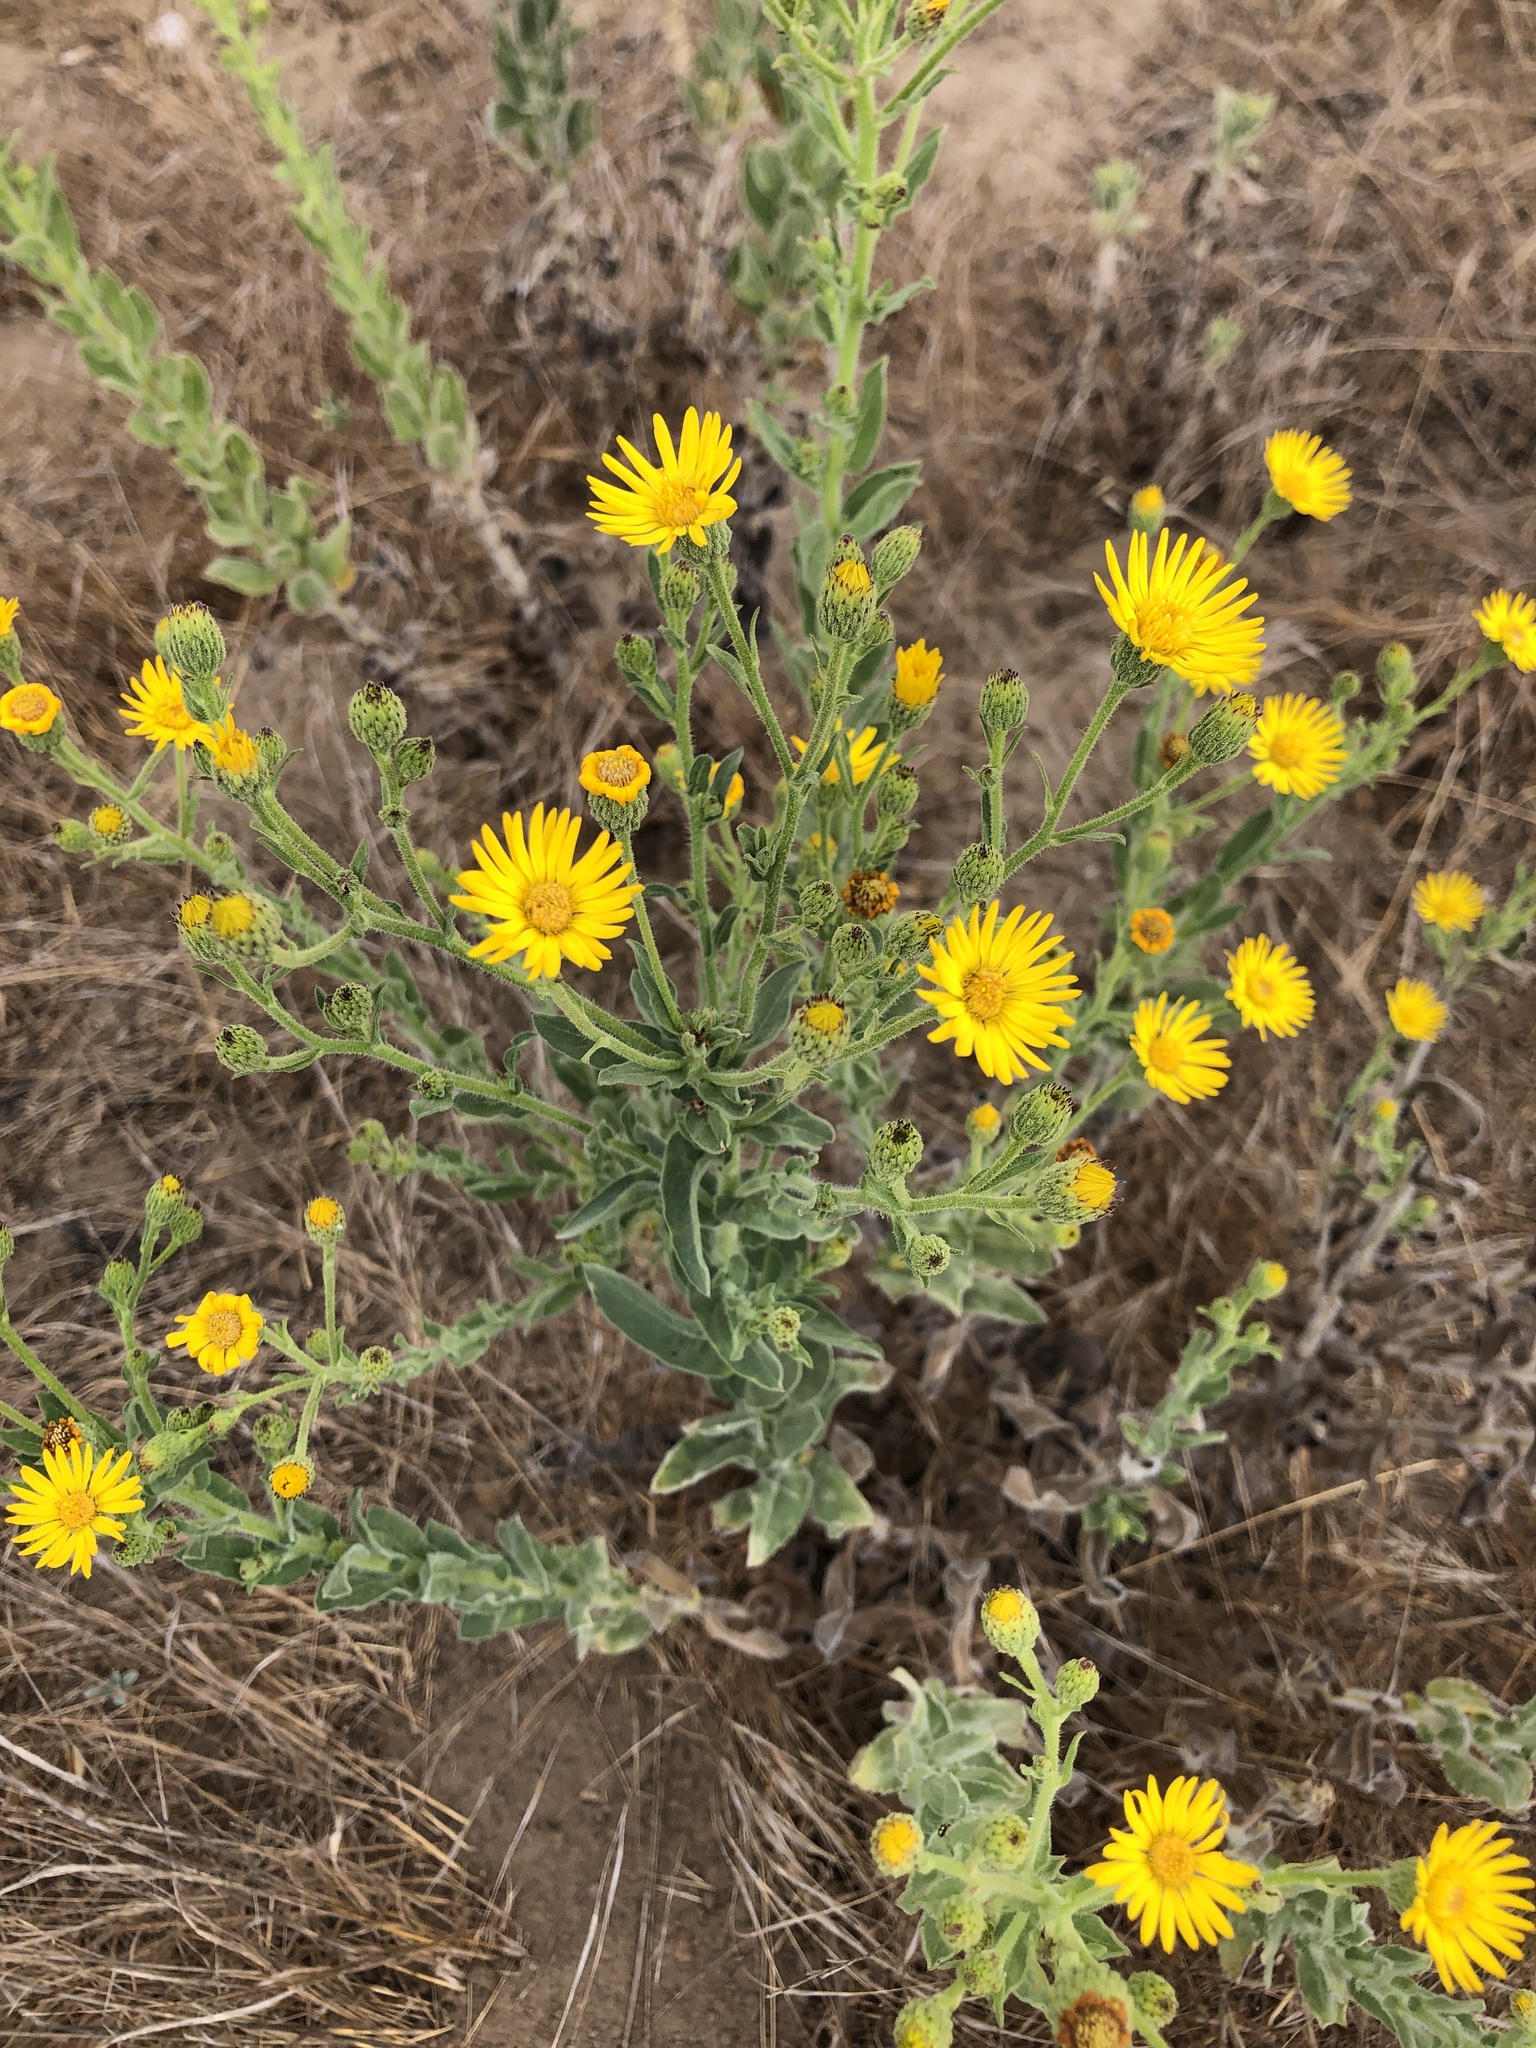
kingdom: Plantae
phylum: Tracheophyta
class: Magnoliopsida
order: Asterales
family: Asteraceae
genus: Heterotheca
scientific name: Heterotheca grandiflora
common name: Telegraphweed
